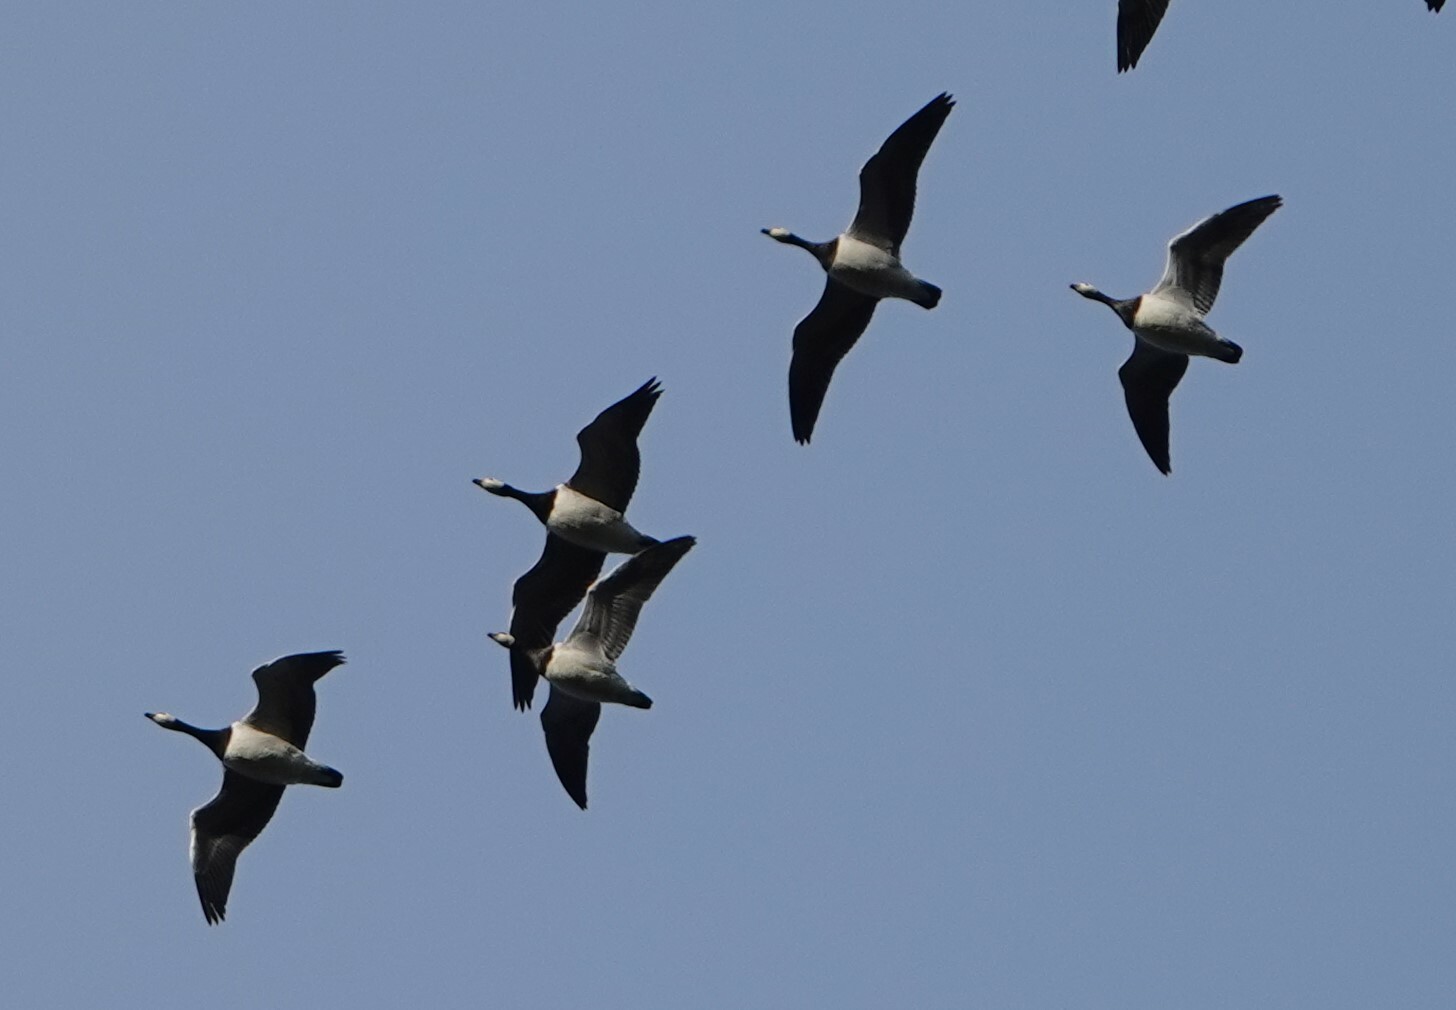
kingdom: Animalia
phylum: Chordata
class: Aves
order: Anseriformes
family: Anatidae
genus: Branta
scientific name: Branta leucopsis
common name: Barnacle goose
